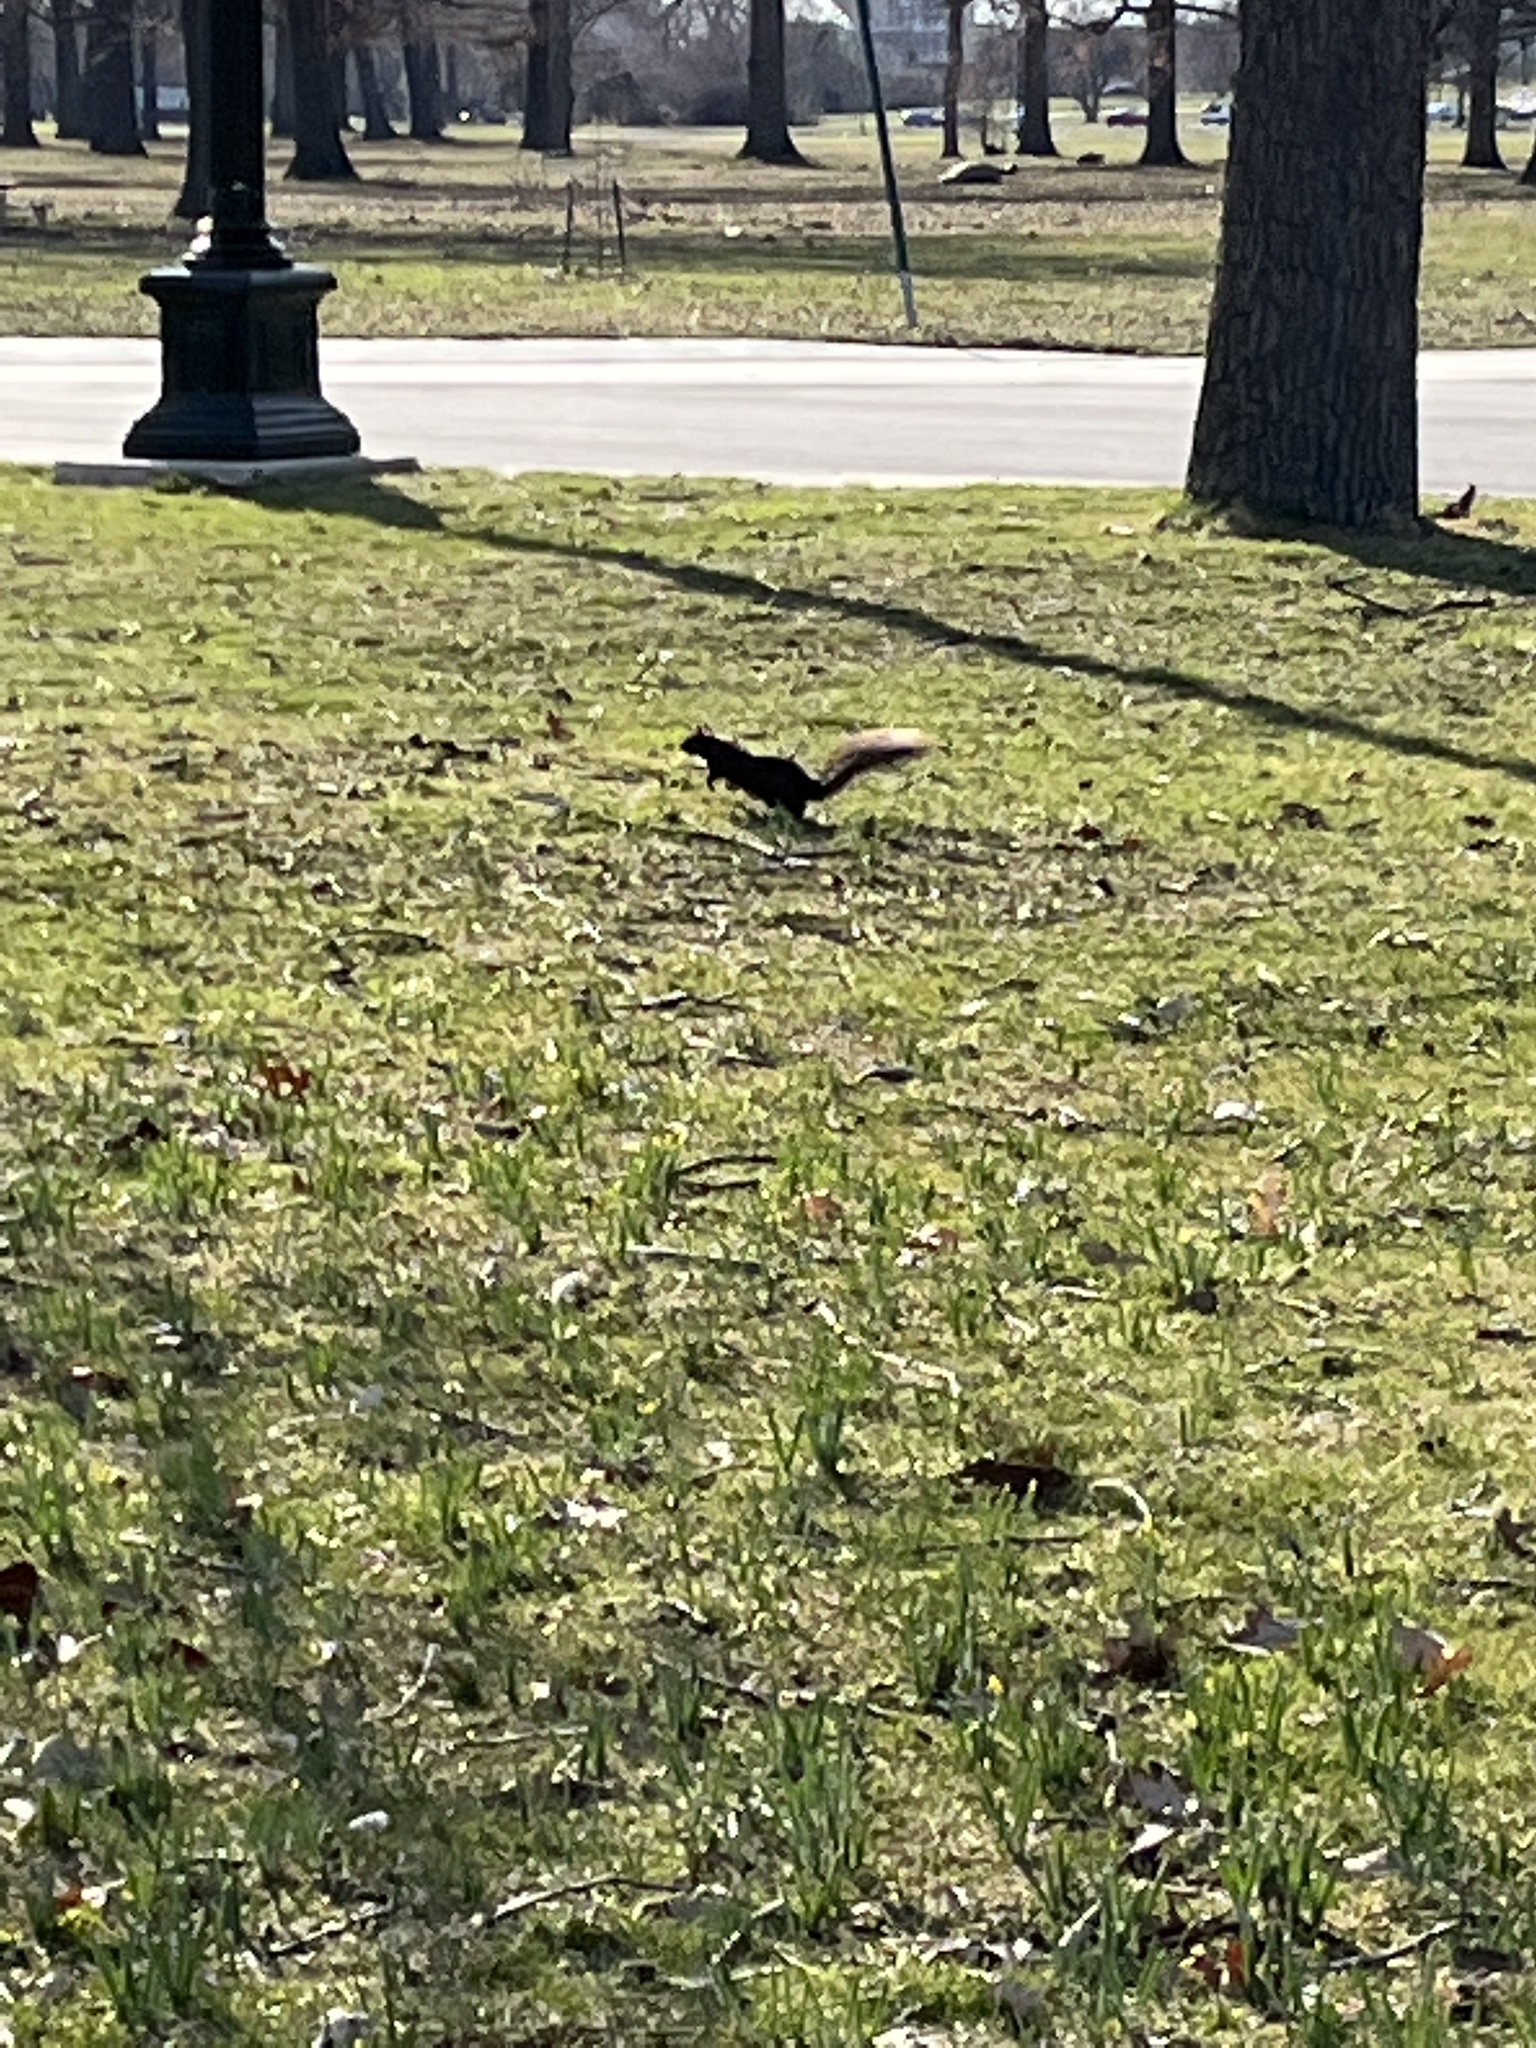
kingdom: Animalia
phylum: Chordata
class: Mammalia
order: Rodentia
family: Sciuridae
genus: Sciurus
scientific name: Sciurus carolinensis
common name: Eastern gray squirrel
